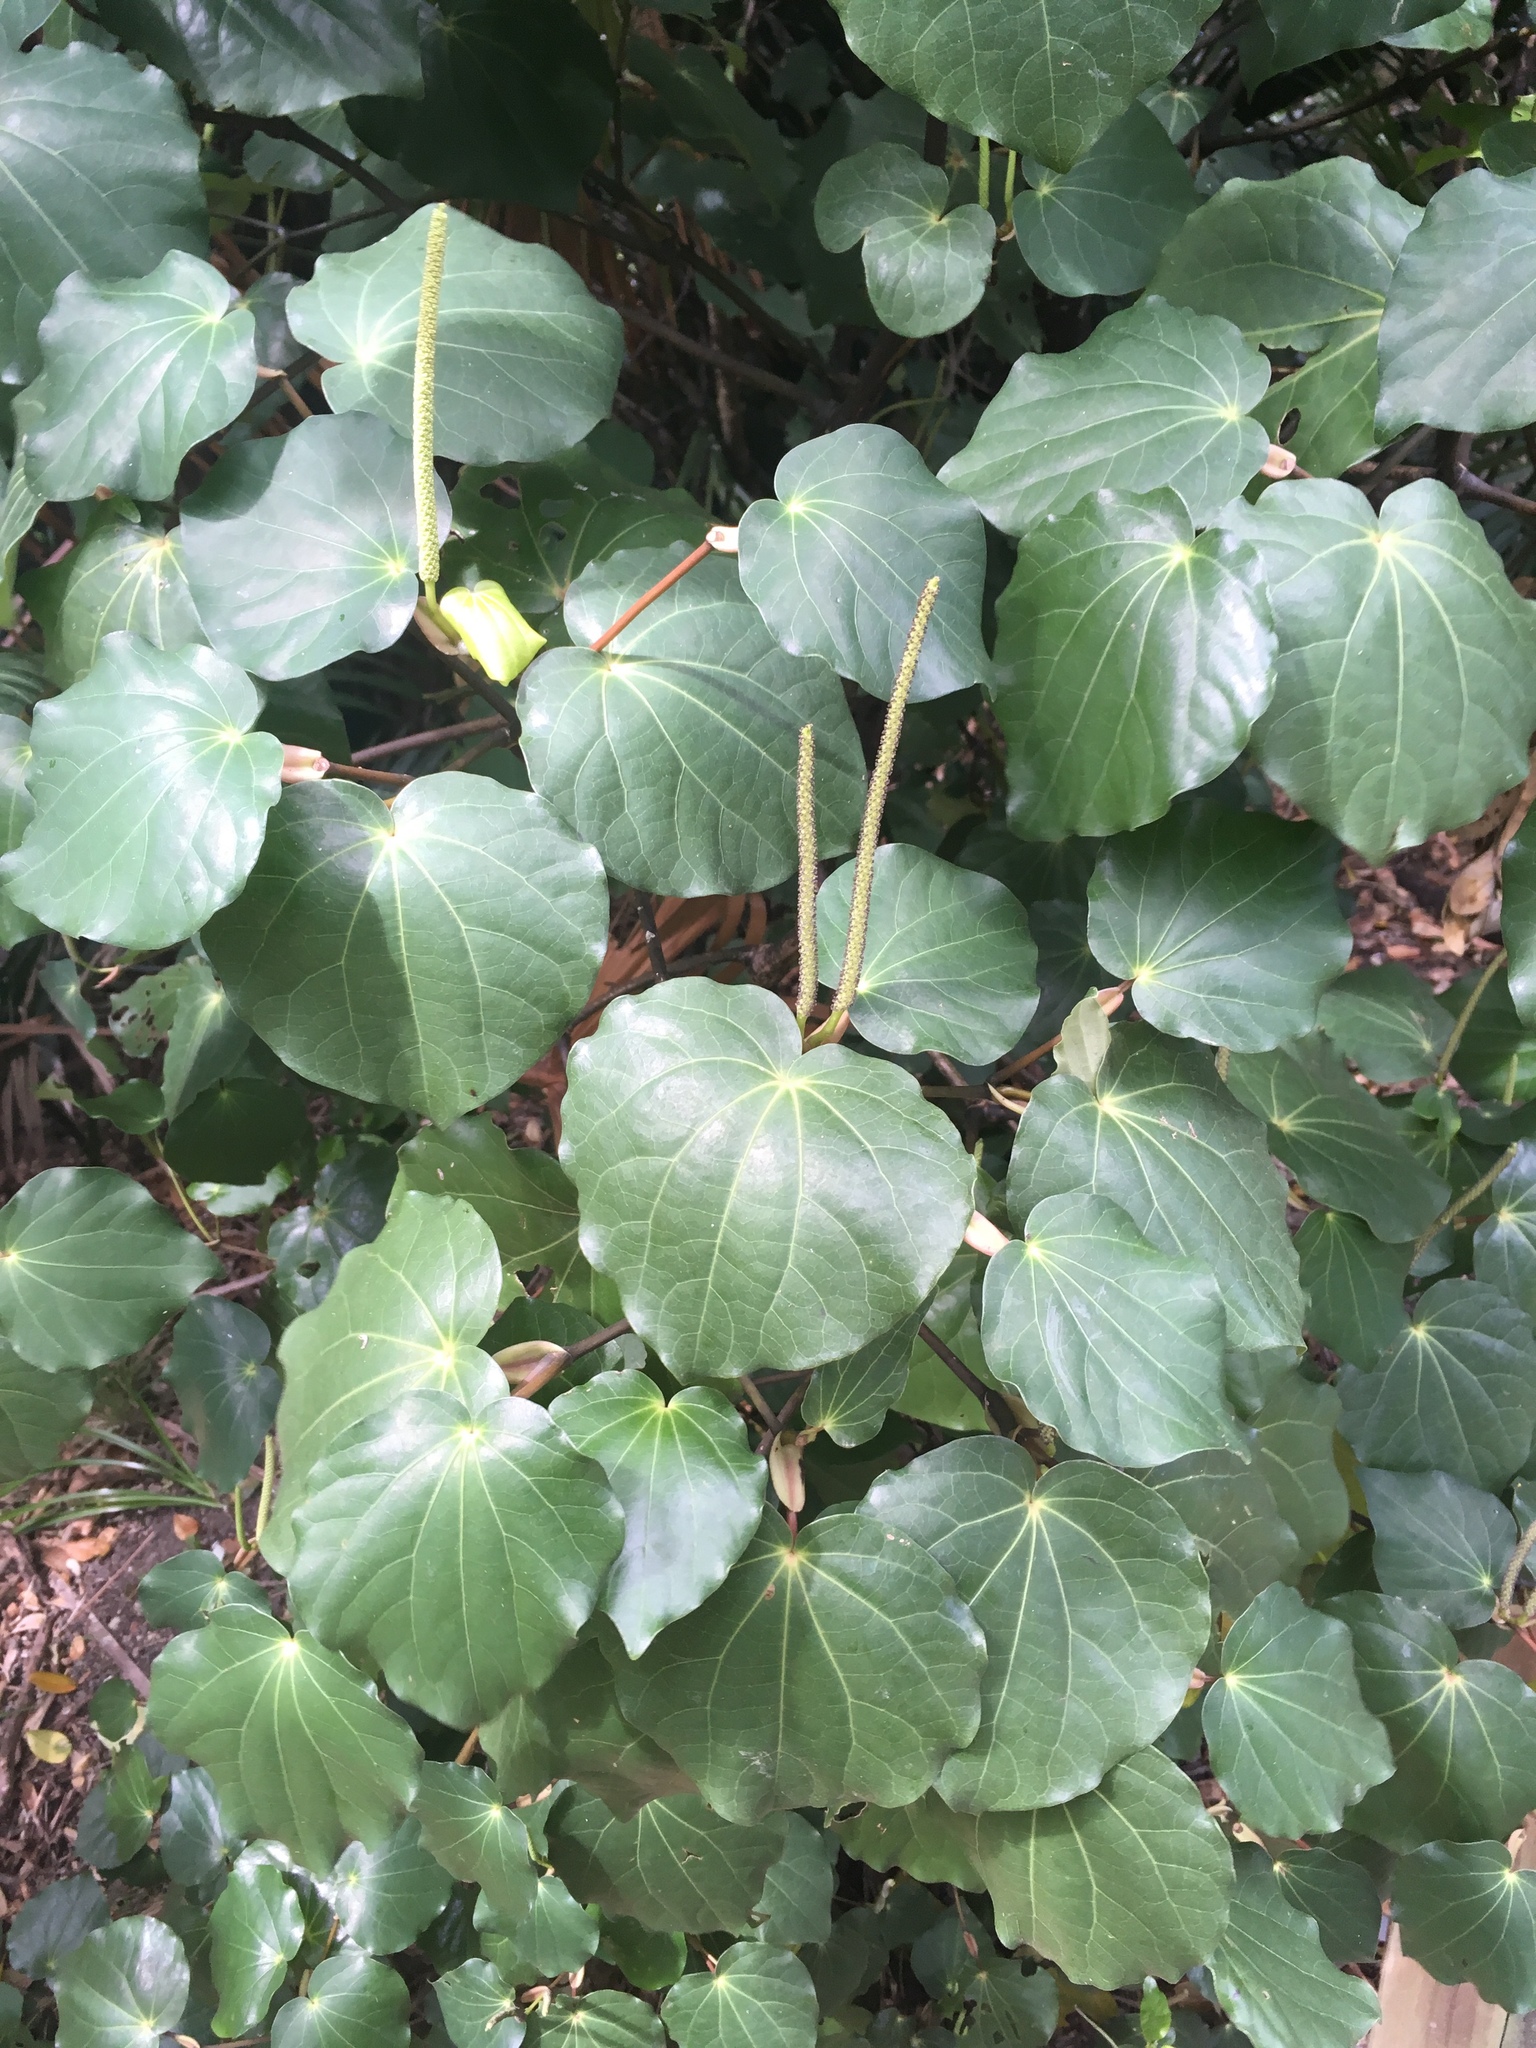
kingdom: Plantae
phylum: Tracheophyta
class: Magnoliopsida
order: Piperales
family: Piperaceae
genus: Macropiper
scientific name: Macropiper excelsum
